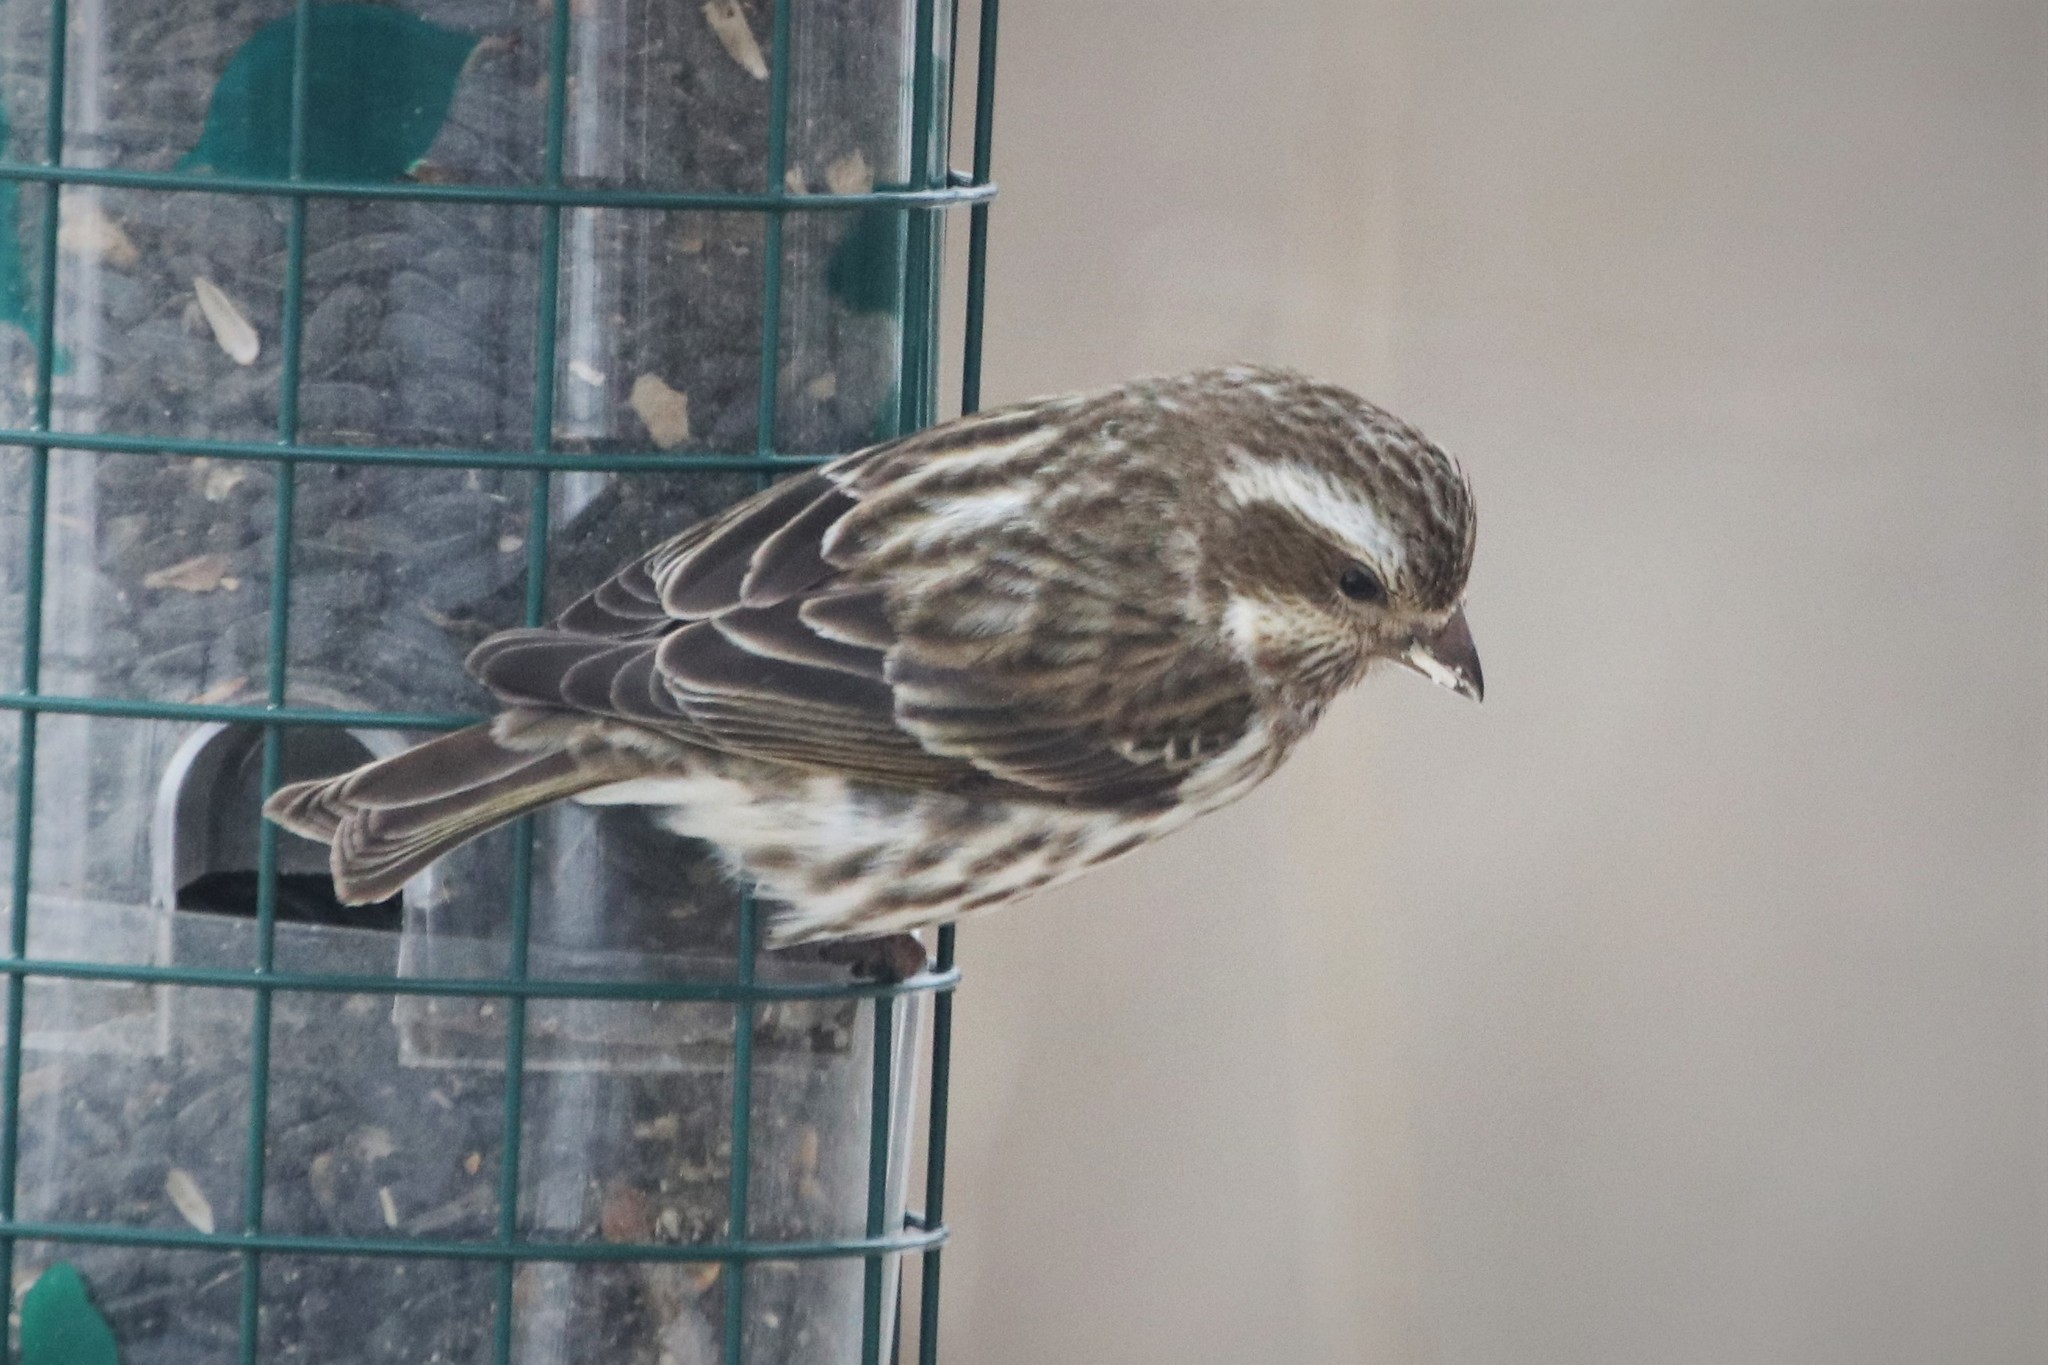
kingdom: Animalia
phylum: Chordata
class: Aves
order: Passeriformes
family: Fringillidae
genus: Haemorhous
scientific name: Haemorhous purpureus
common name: Purple finch
